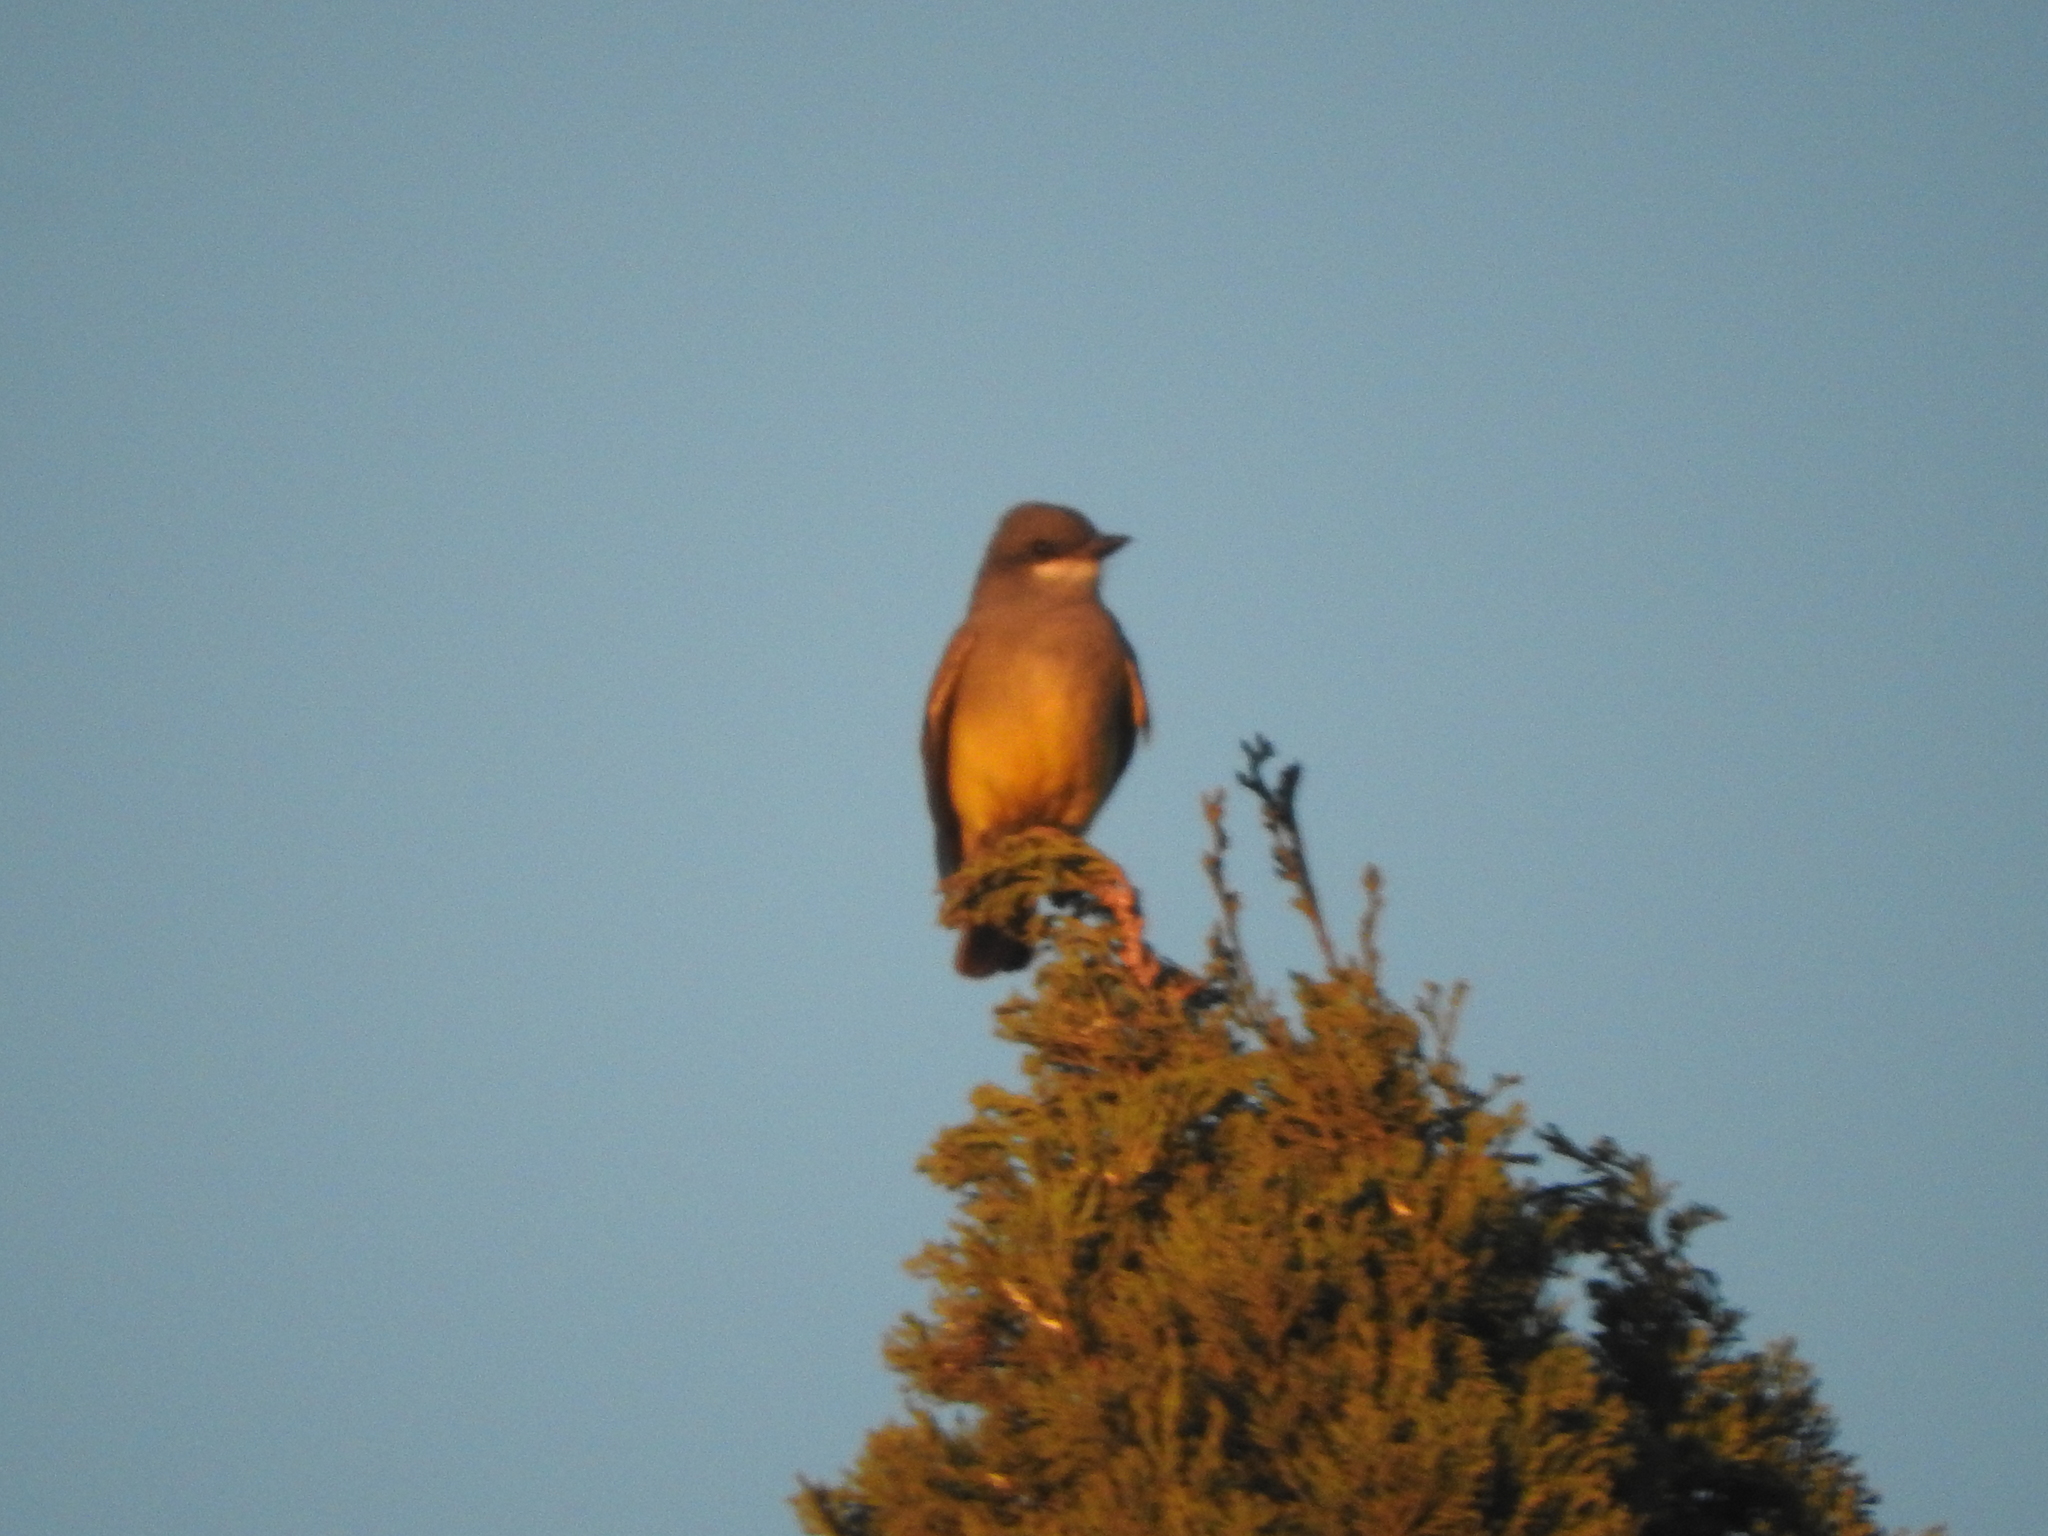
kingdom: Animalia
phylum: Chordata
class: Aves
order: Passeriformes
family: Tyrannidae
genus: Tyrannus
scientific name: Tyrannus vociferans
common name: Cassin's kingbird
